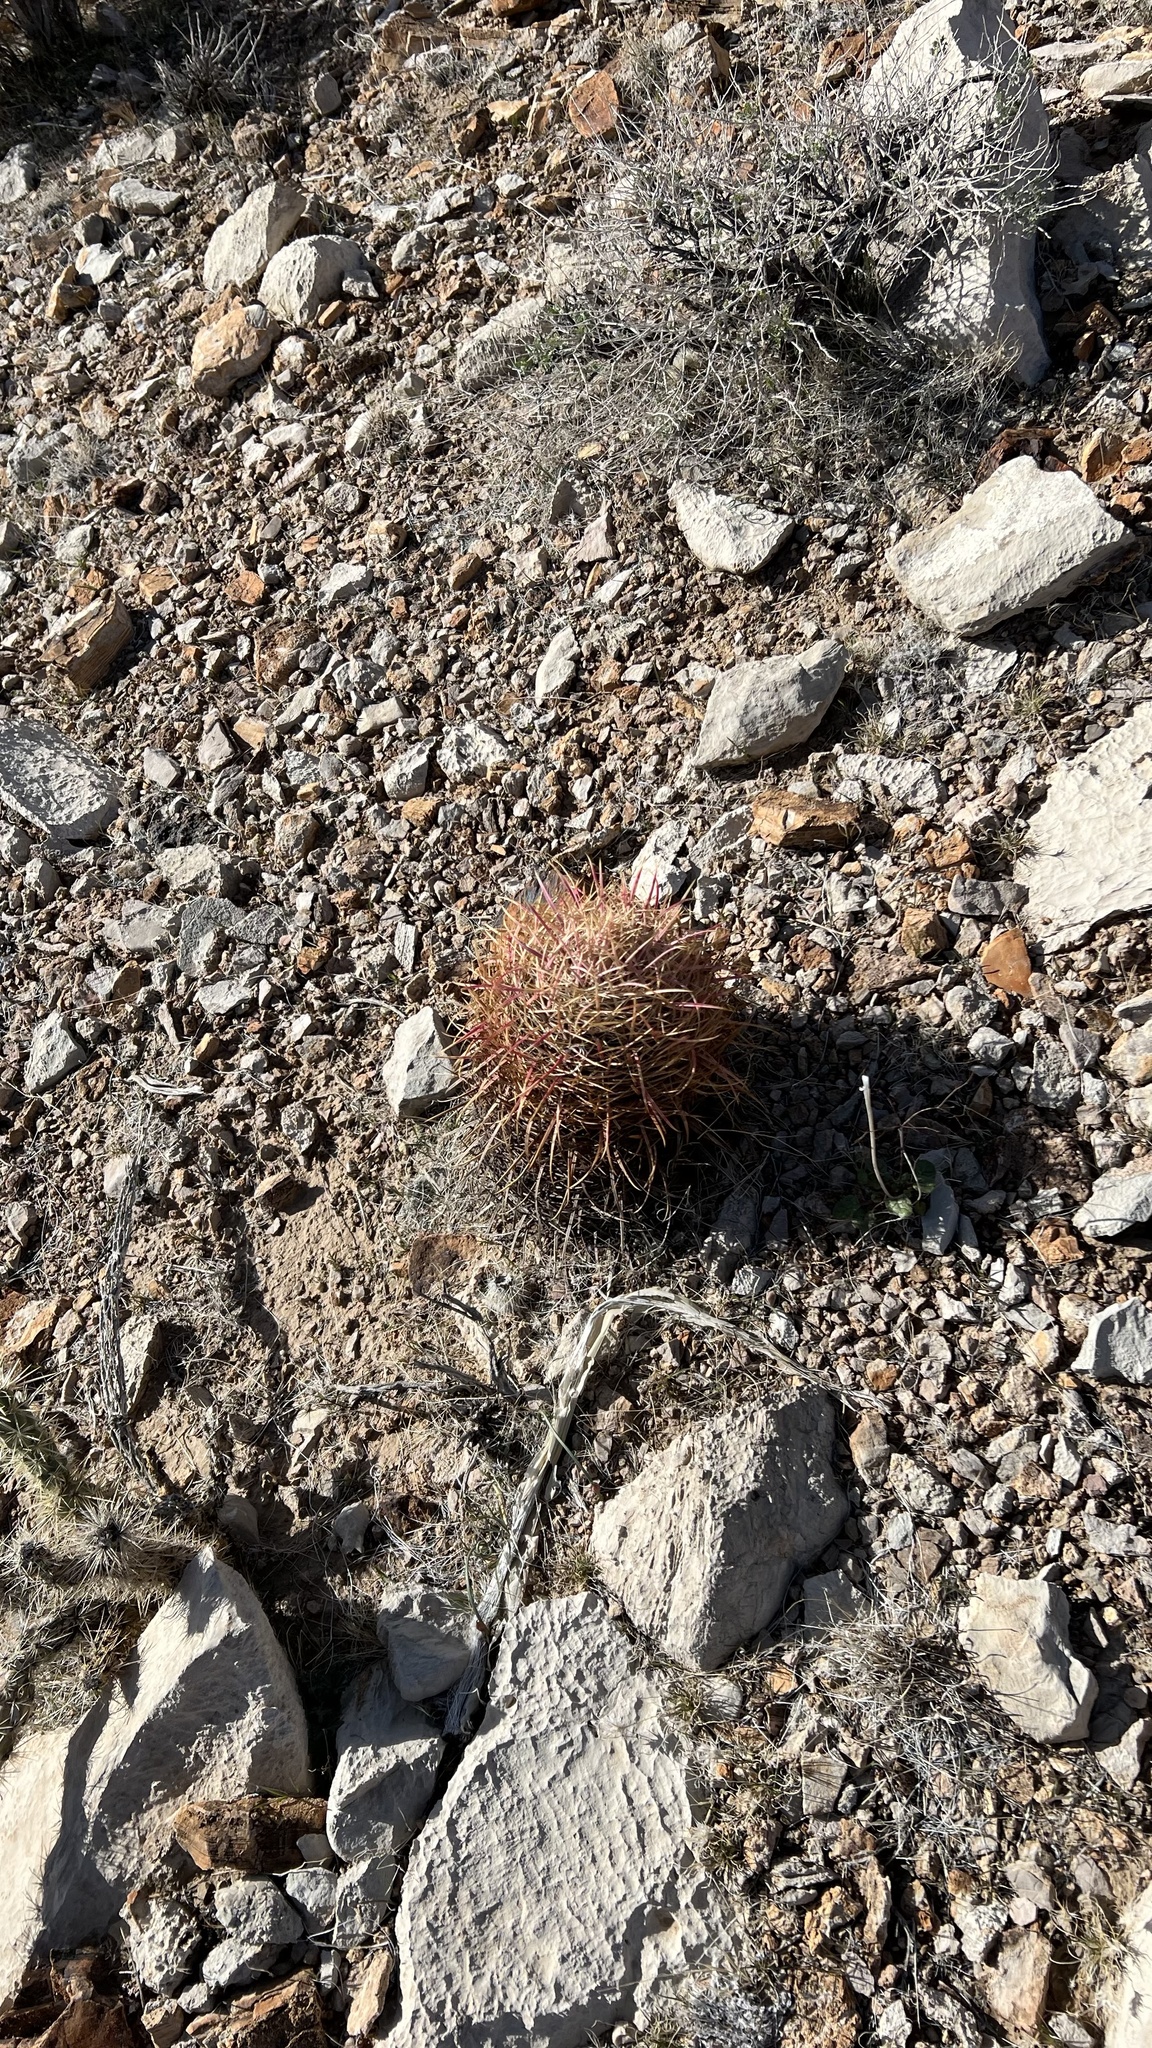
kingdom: Plantae
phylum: Tracheophyta
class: Magnoliopsida
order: Caryophyllales
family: Cactaceae
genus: Ferocactus
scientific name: Ferocactus cylindraceus
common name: California barrel cactus
